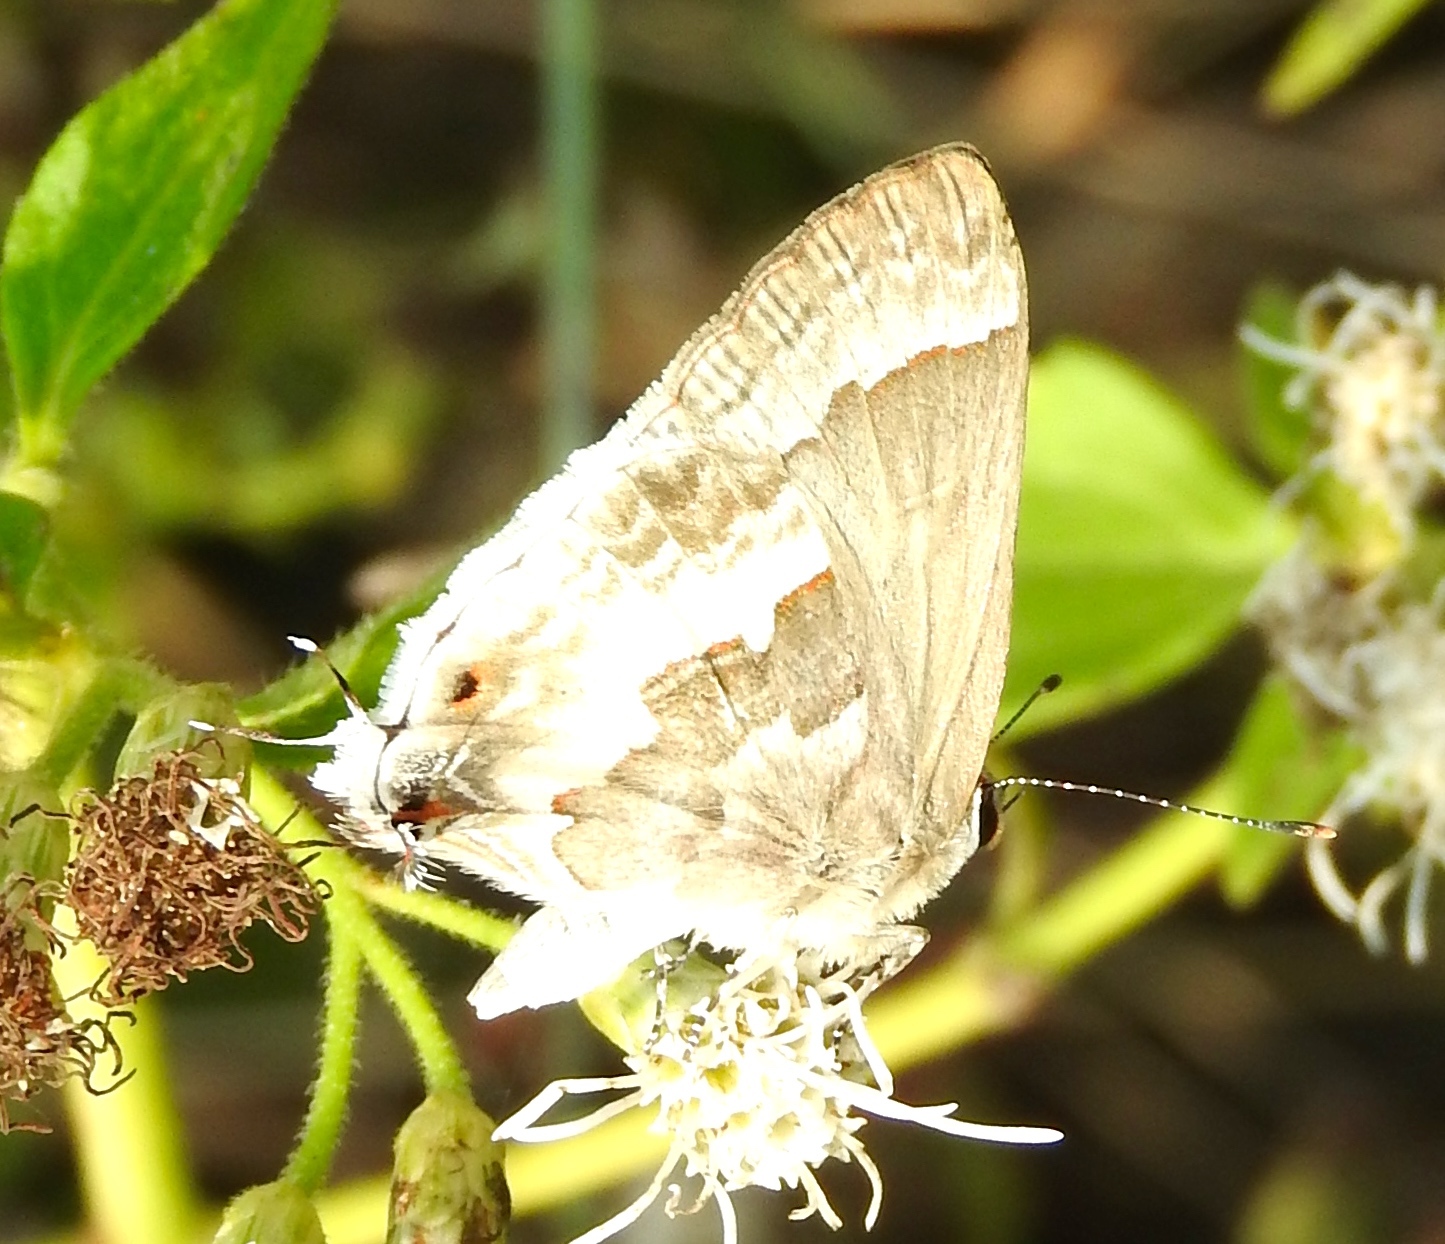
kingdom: Animalia
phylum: Arthropoda
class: Insecta
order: Lepidoptera
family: Lycaenidae
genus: Strymon
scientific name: Strymon albata
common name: White scrub-hairstreak
